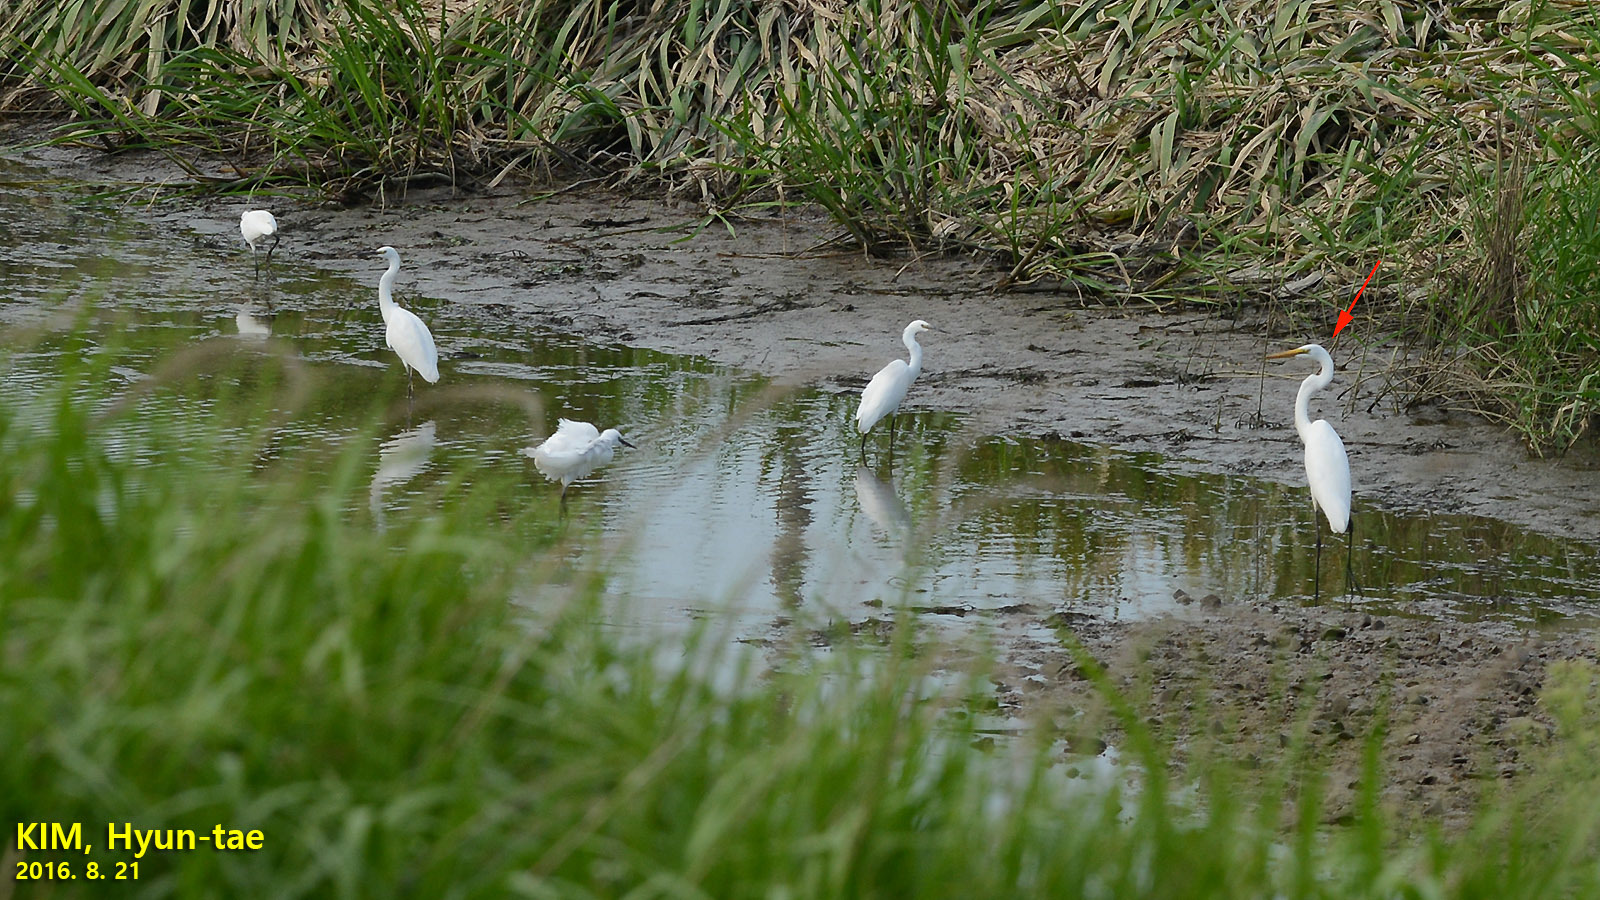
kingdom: Animalia
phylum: Chordata
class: Aves
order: Pelecaniformes
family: Ardeidae
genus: Ardea
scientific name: Ardea modesta
